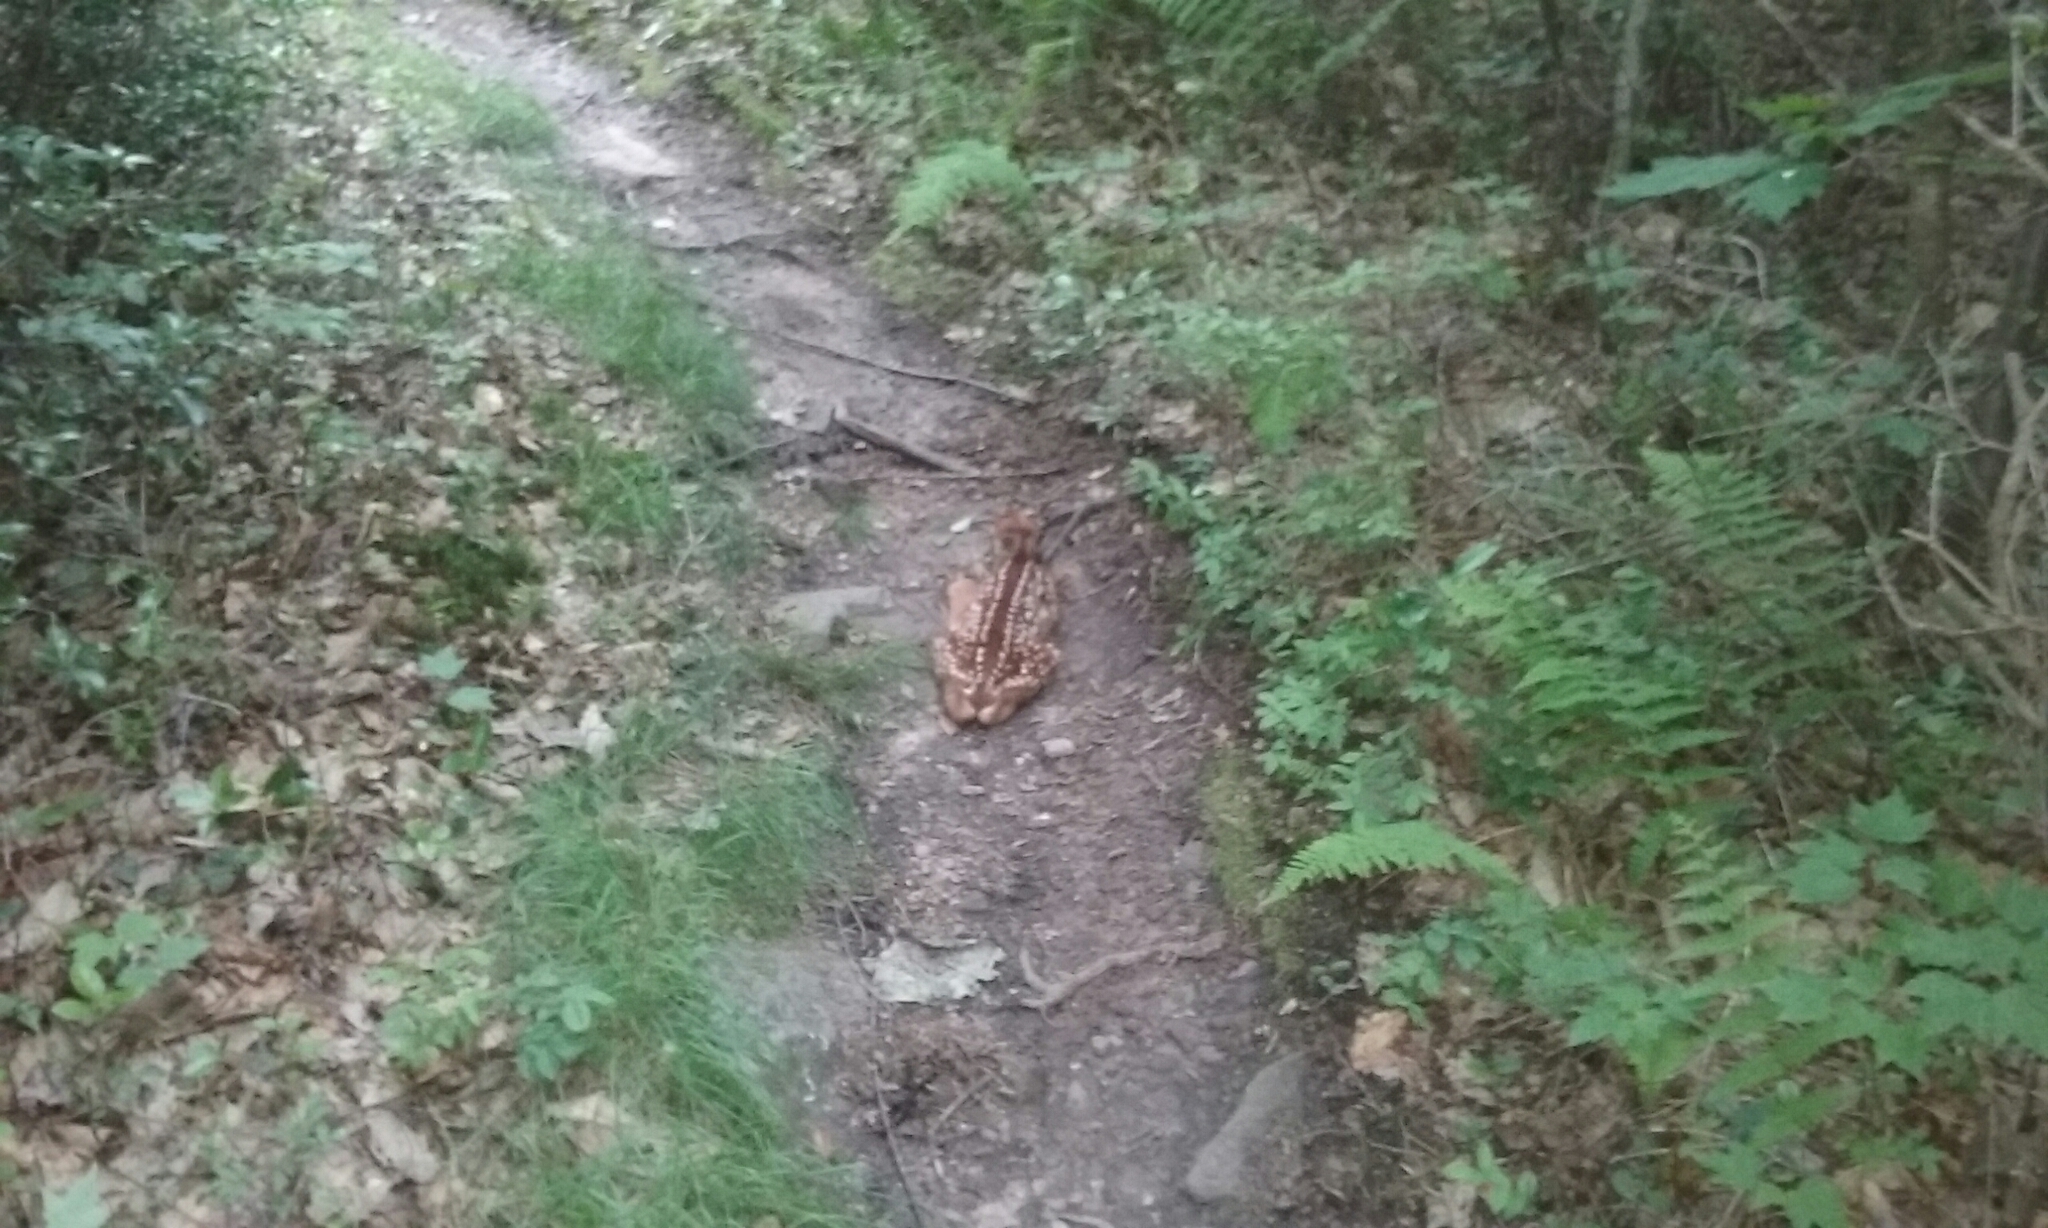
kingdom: Animalia
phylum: Chordata
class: Mammalia
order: Artiodactyla
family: Cervidae
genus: Odocoileus
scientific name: Odocoileus virginianus
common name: White-tailed deer
